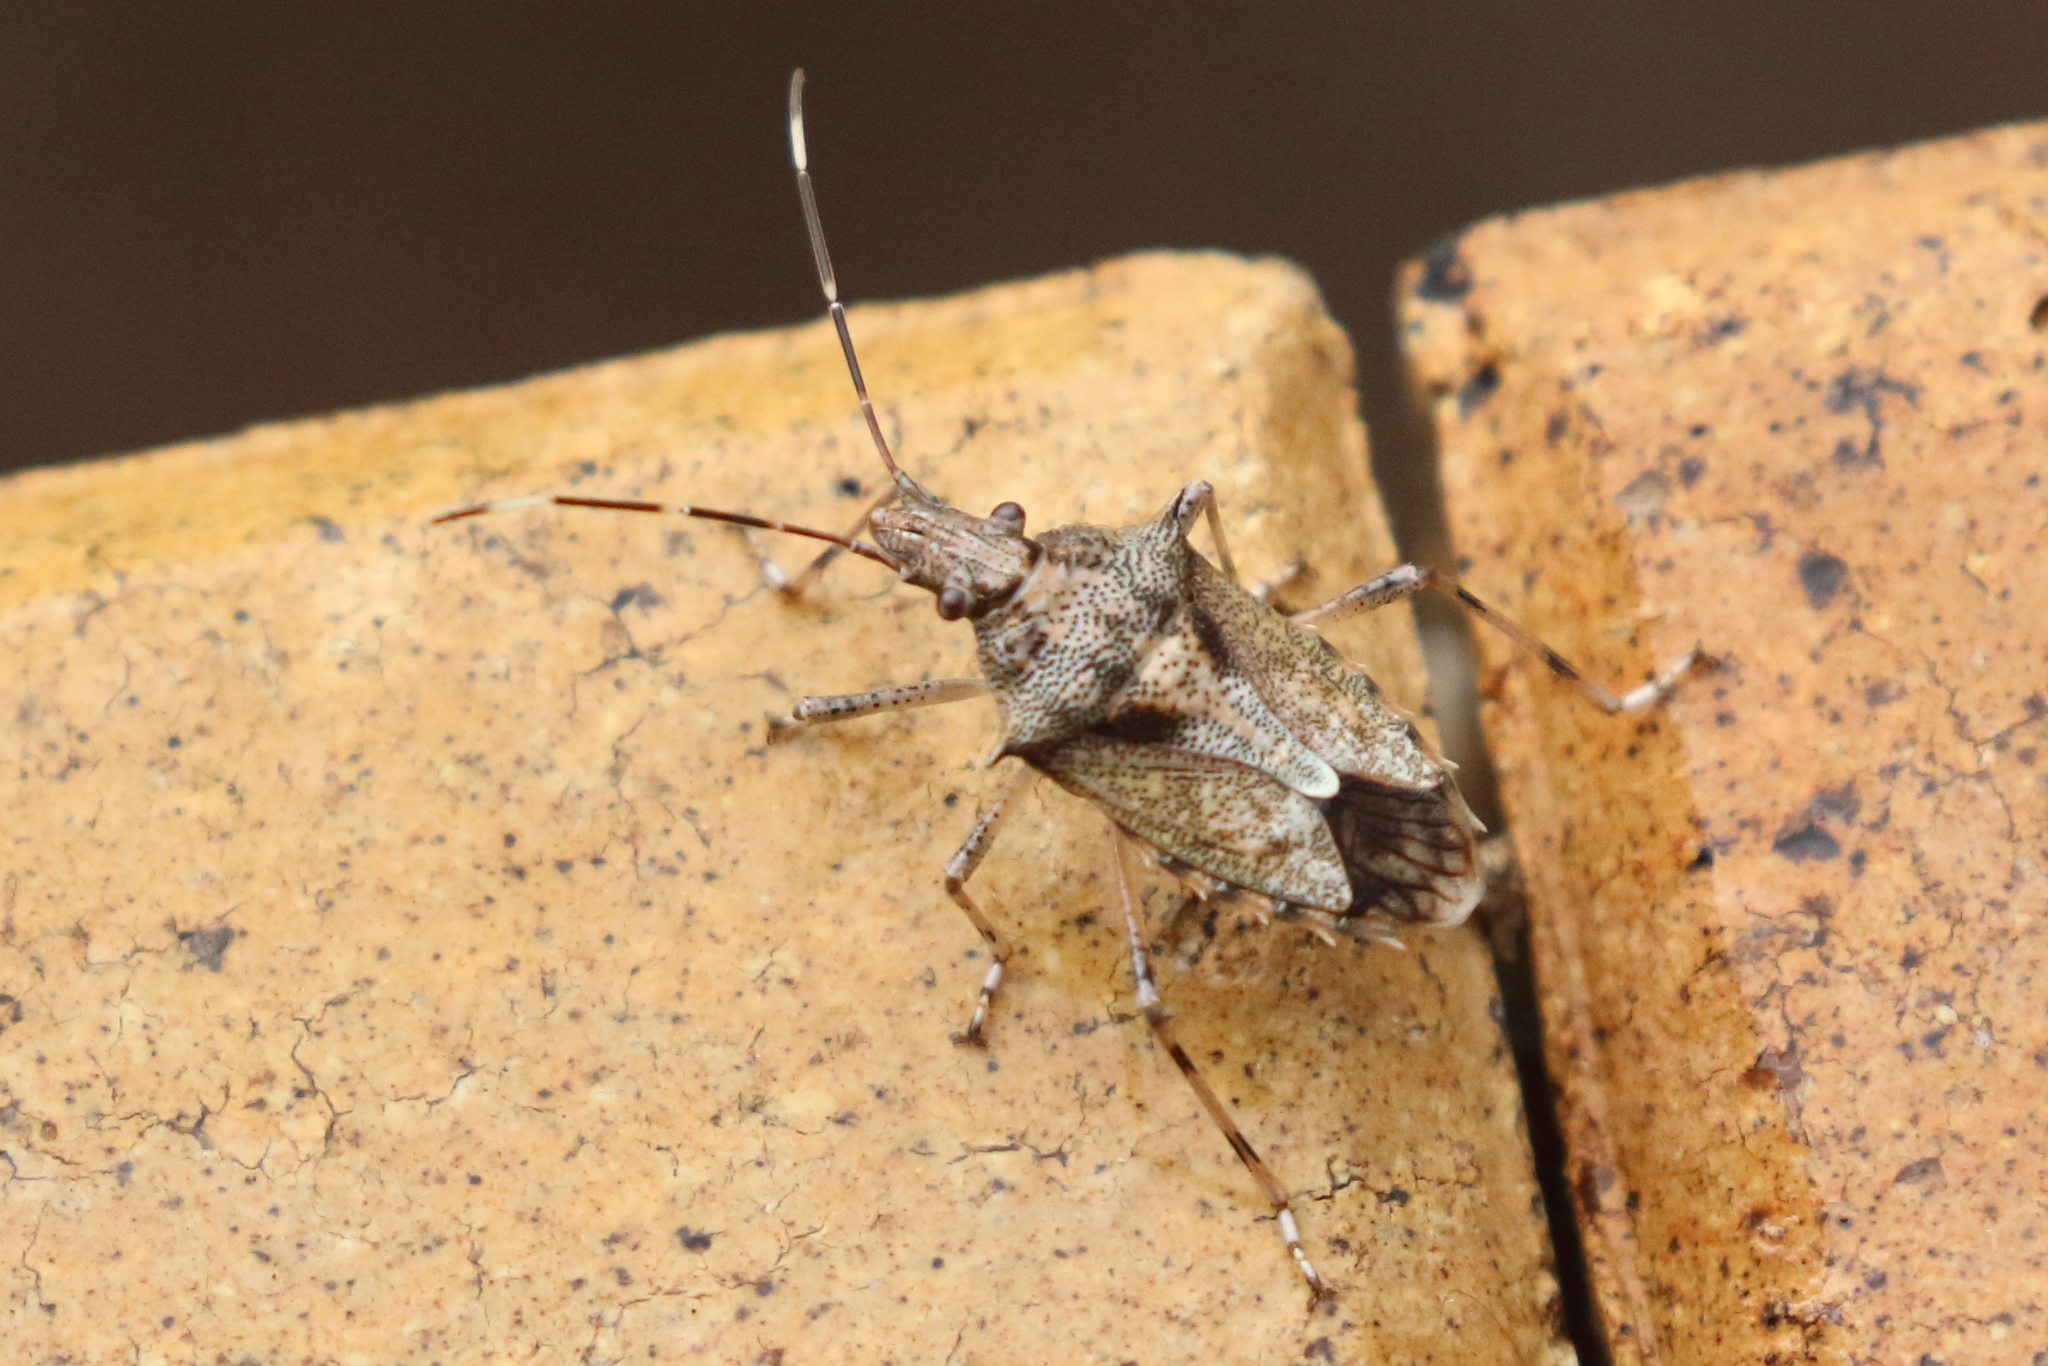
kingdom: Animalia
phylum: Arthropoda
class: Insecta
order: Hemiptera
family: Pentatomidae
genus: Bromocoris
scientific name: Bromocoris
